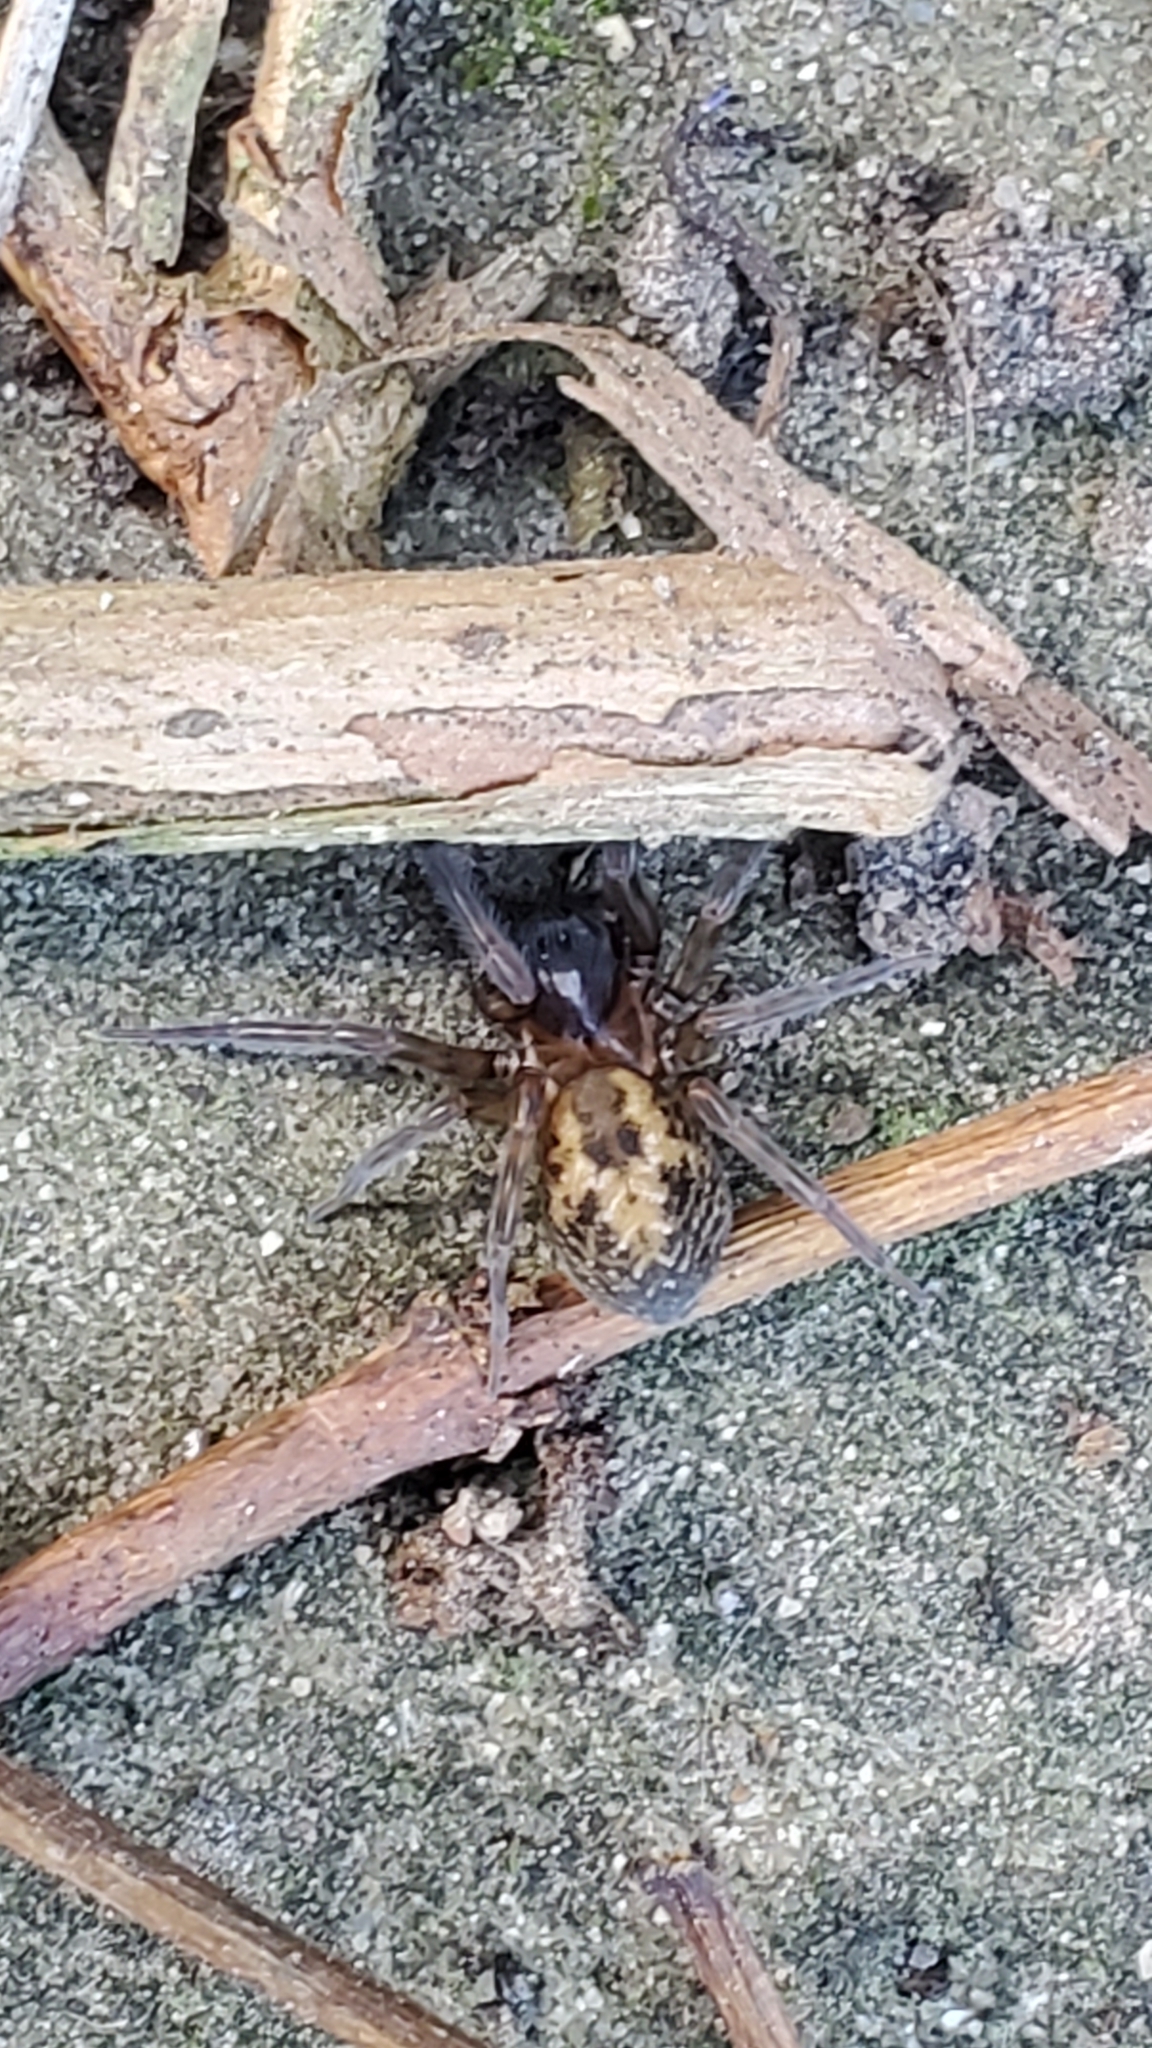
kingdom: Animalia
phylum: Arthropoda
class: Arachnida
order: Araneae
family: Amaurobiidae
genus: Amaurobius
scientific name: Amaurobius
